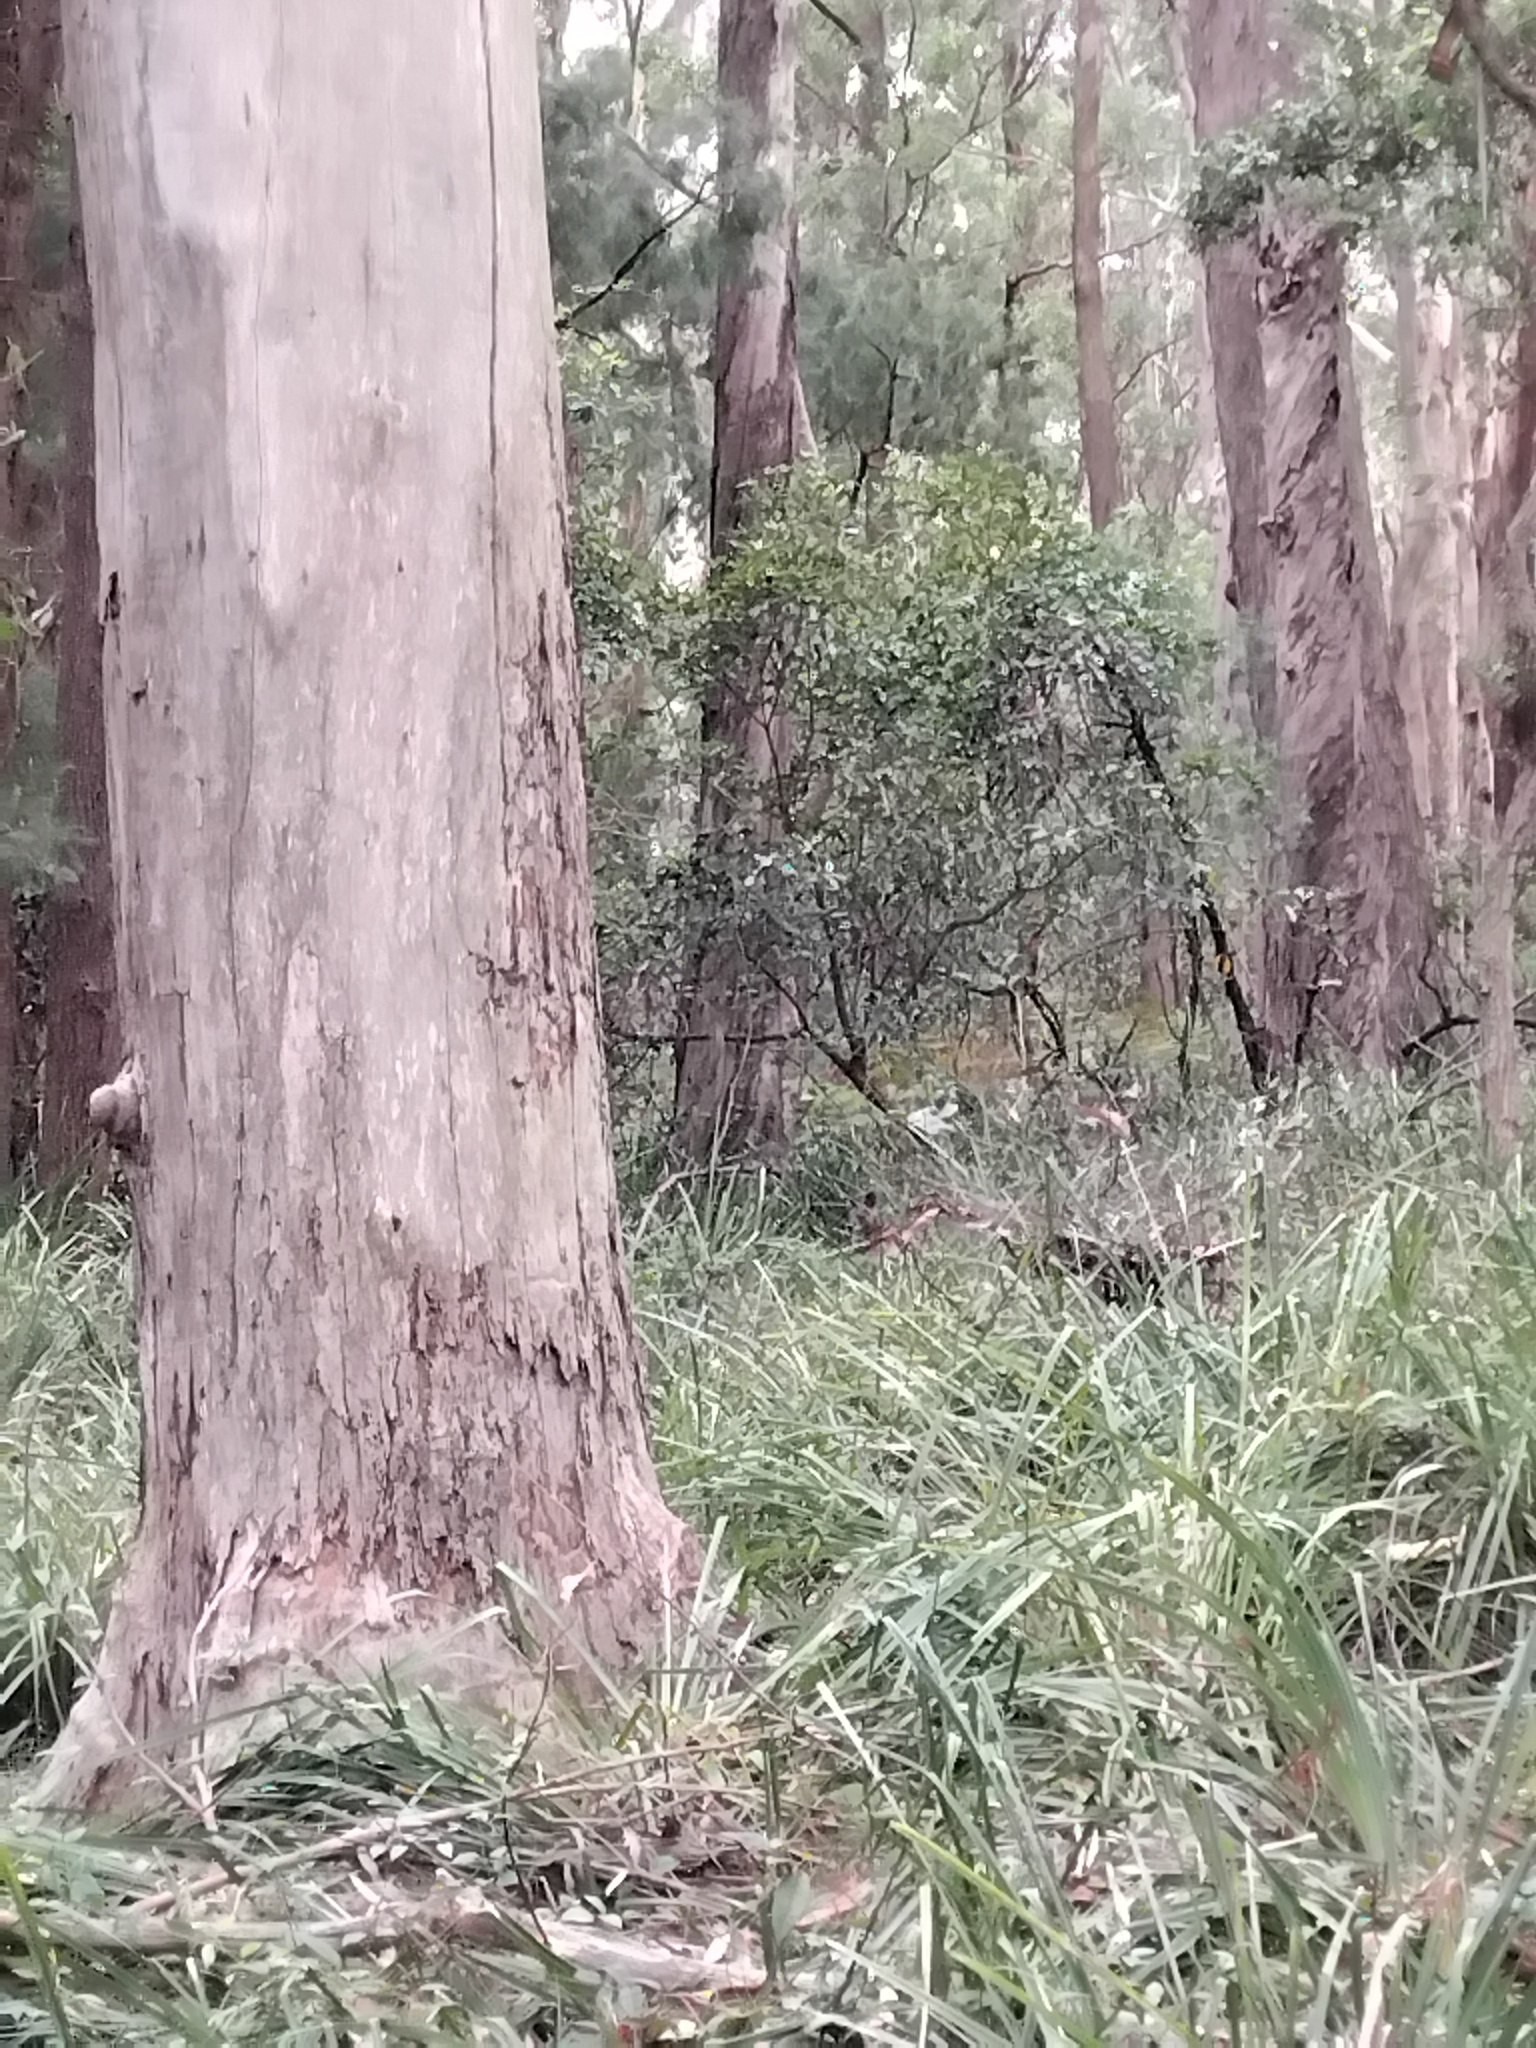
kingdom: Animalia
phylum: Chordata
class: Mammalia
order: Diprotodontia
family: Macropodidae
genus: Wallabia
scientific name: Wallabia bicolor
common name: Swamp wallaby
